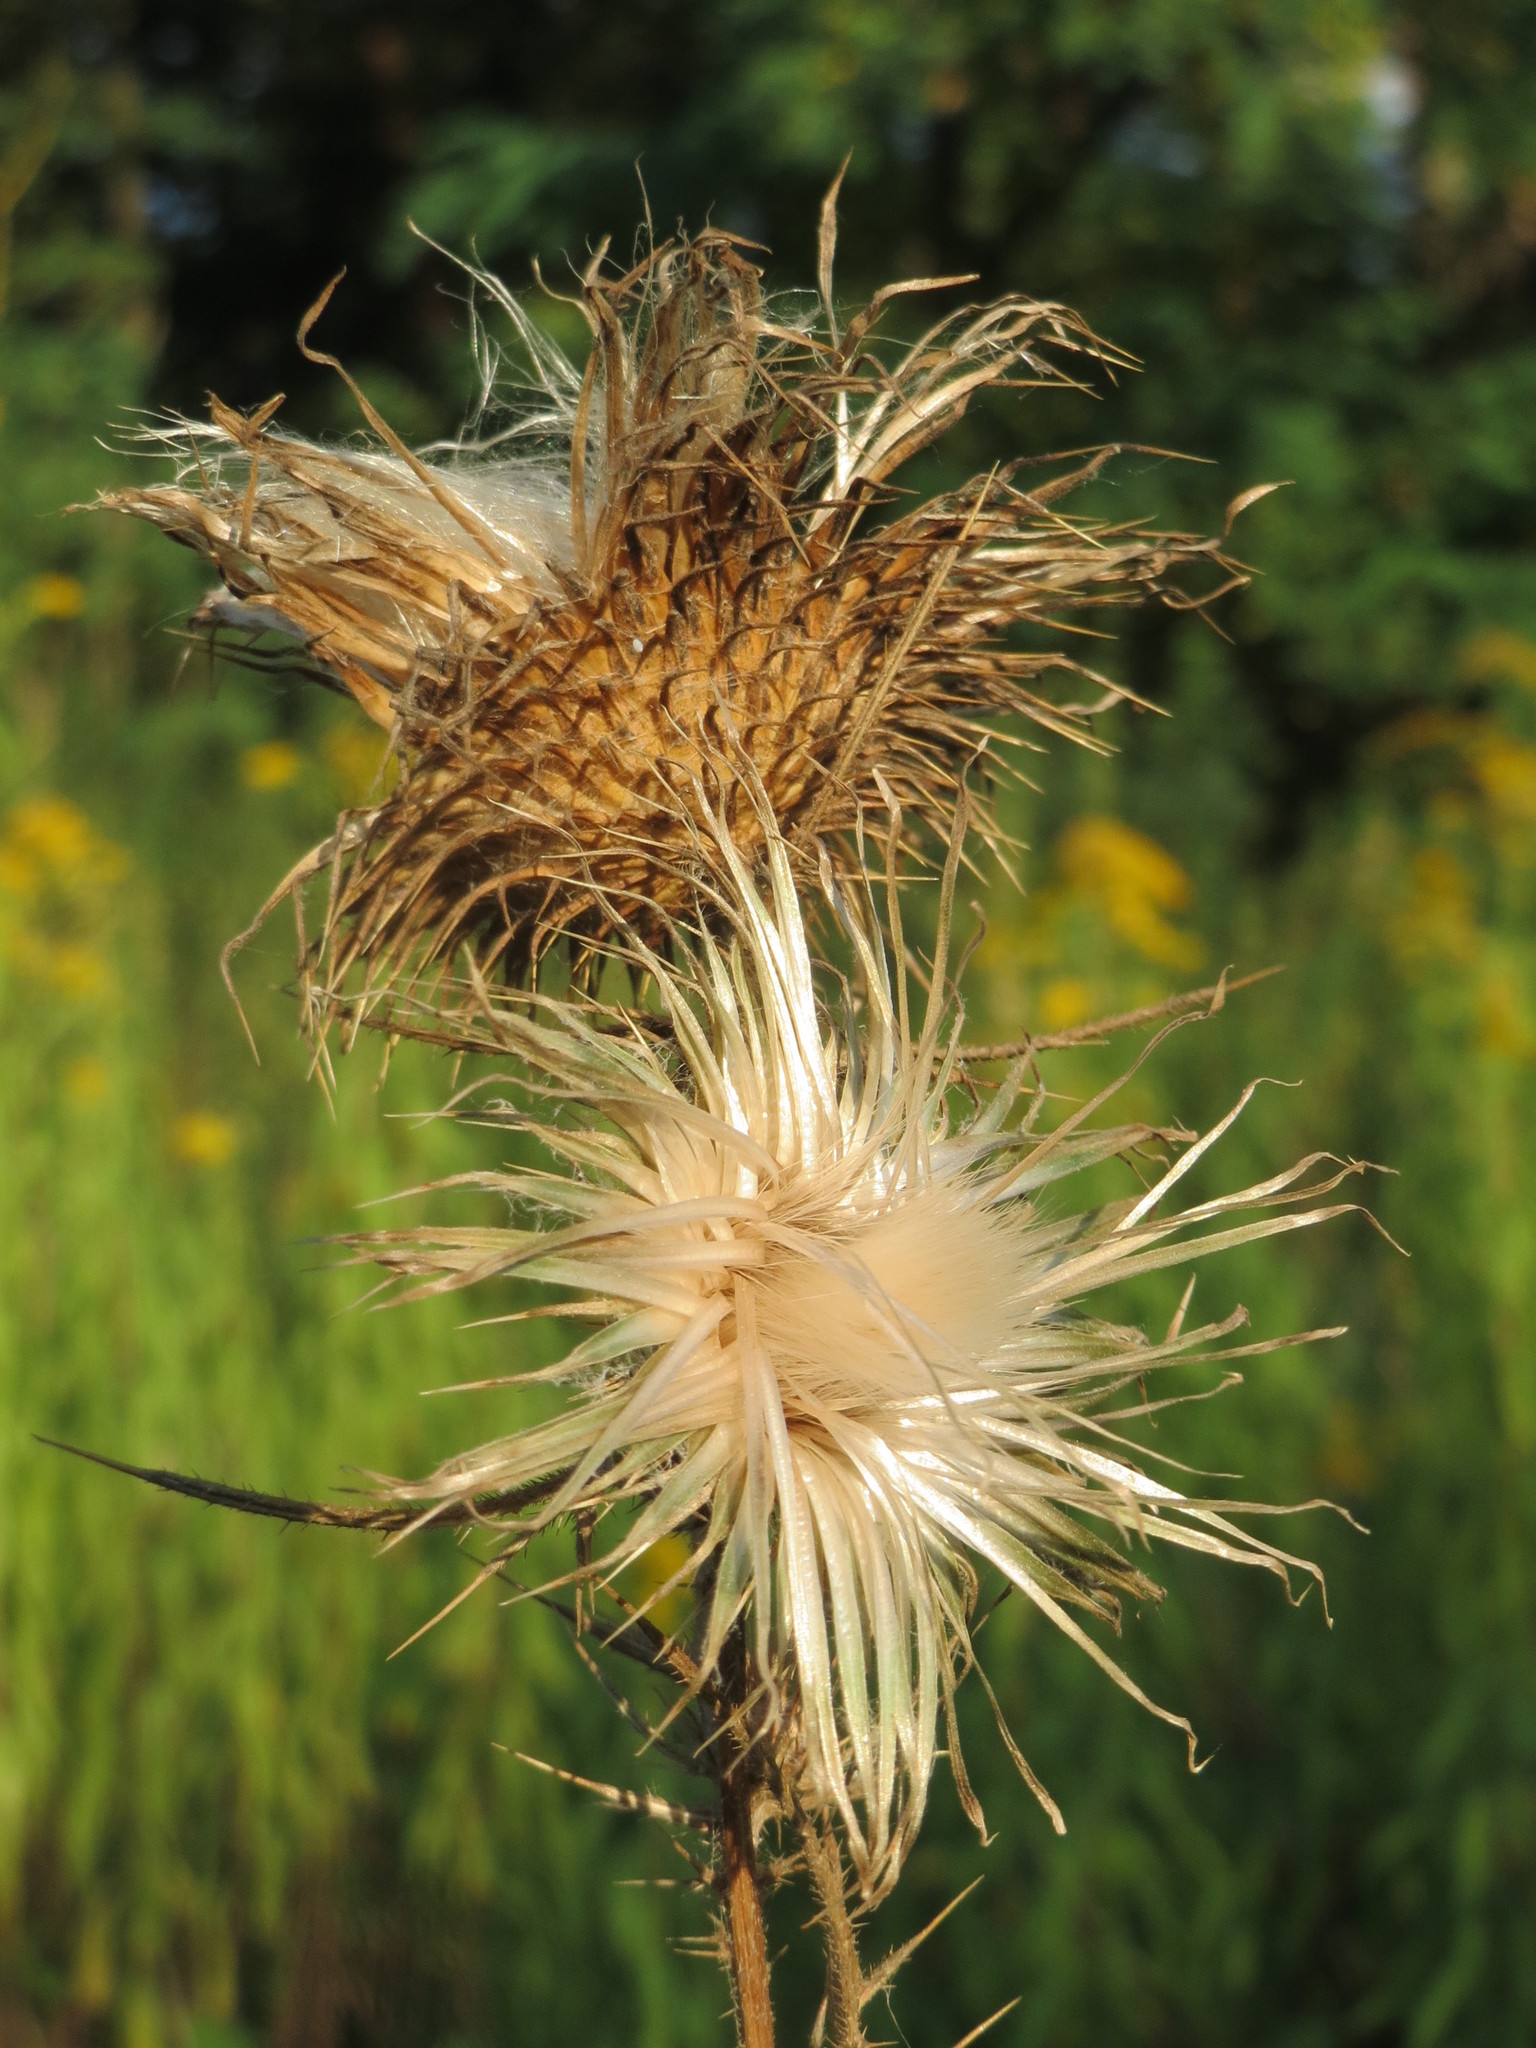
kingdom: Plantae
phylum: Tracheophyta
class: Magnoliopsida
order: Asterales
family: Asteraceae
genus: Cirsium
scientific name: Cirsium vulgare
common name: Bull thistle
